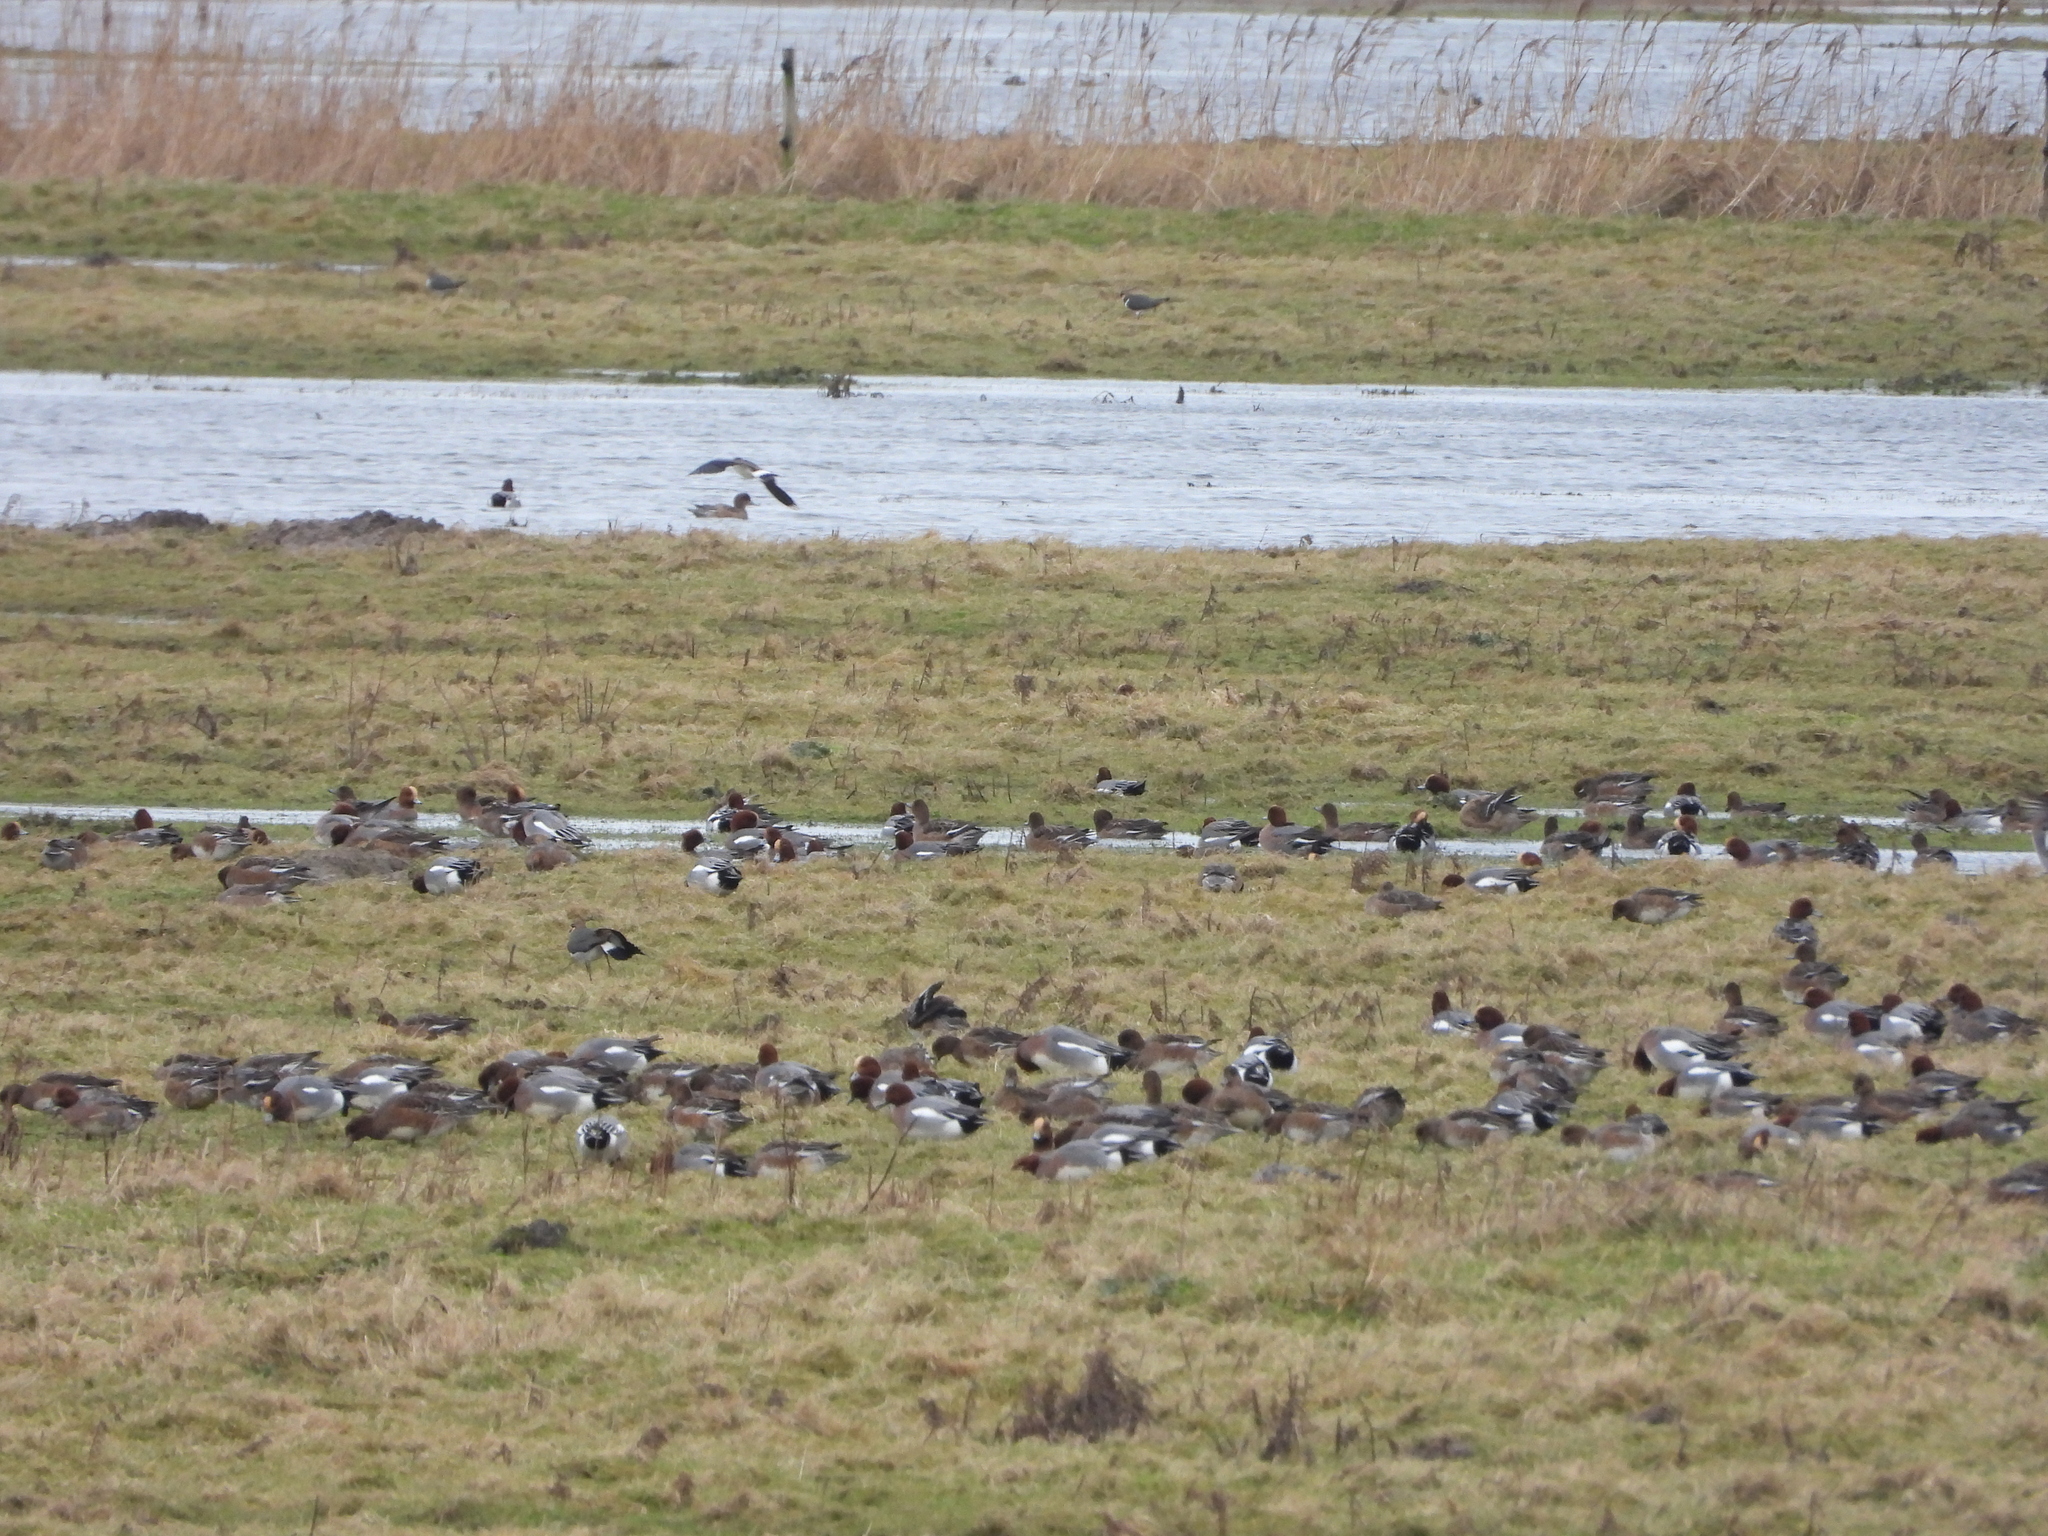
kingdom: Animalia
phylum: Chordata
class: Aves
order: Anseriformes
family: Anatidae
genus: Mareca
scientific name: Mareca penelope
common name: Eurasian wigeon
